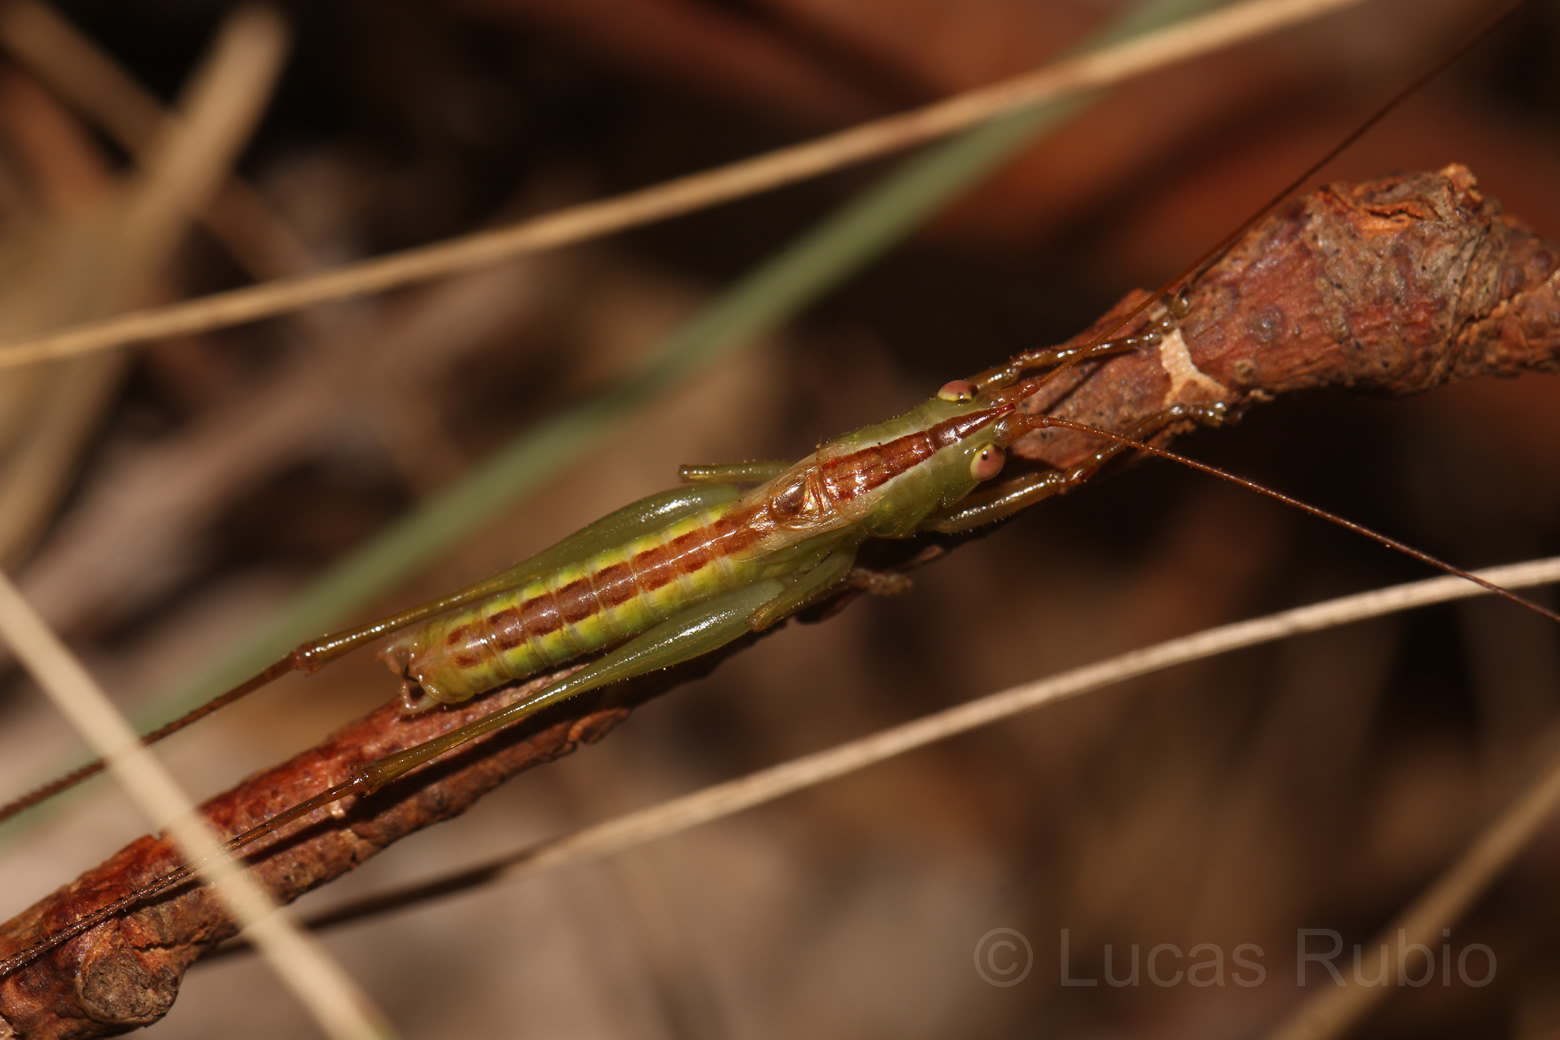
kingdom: Animalia
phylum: Arthropoda
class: Insecta
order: Orthoptera
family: Tettigoniidae
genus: Conocephalus
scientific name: Conocephalus
